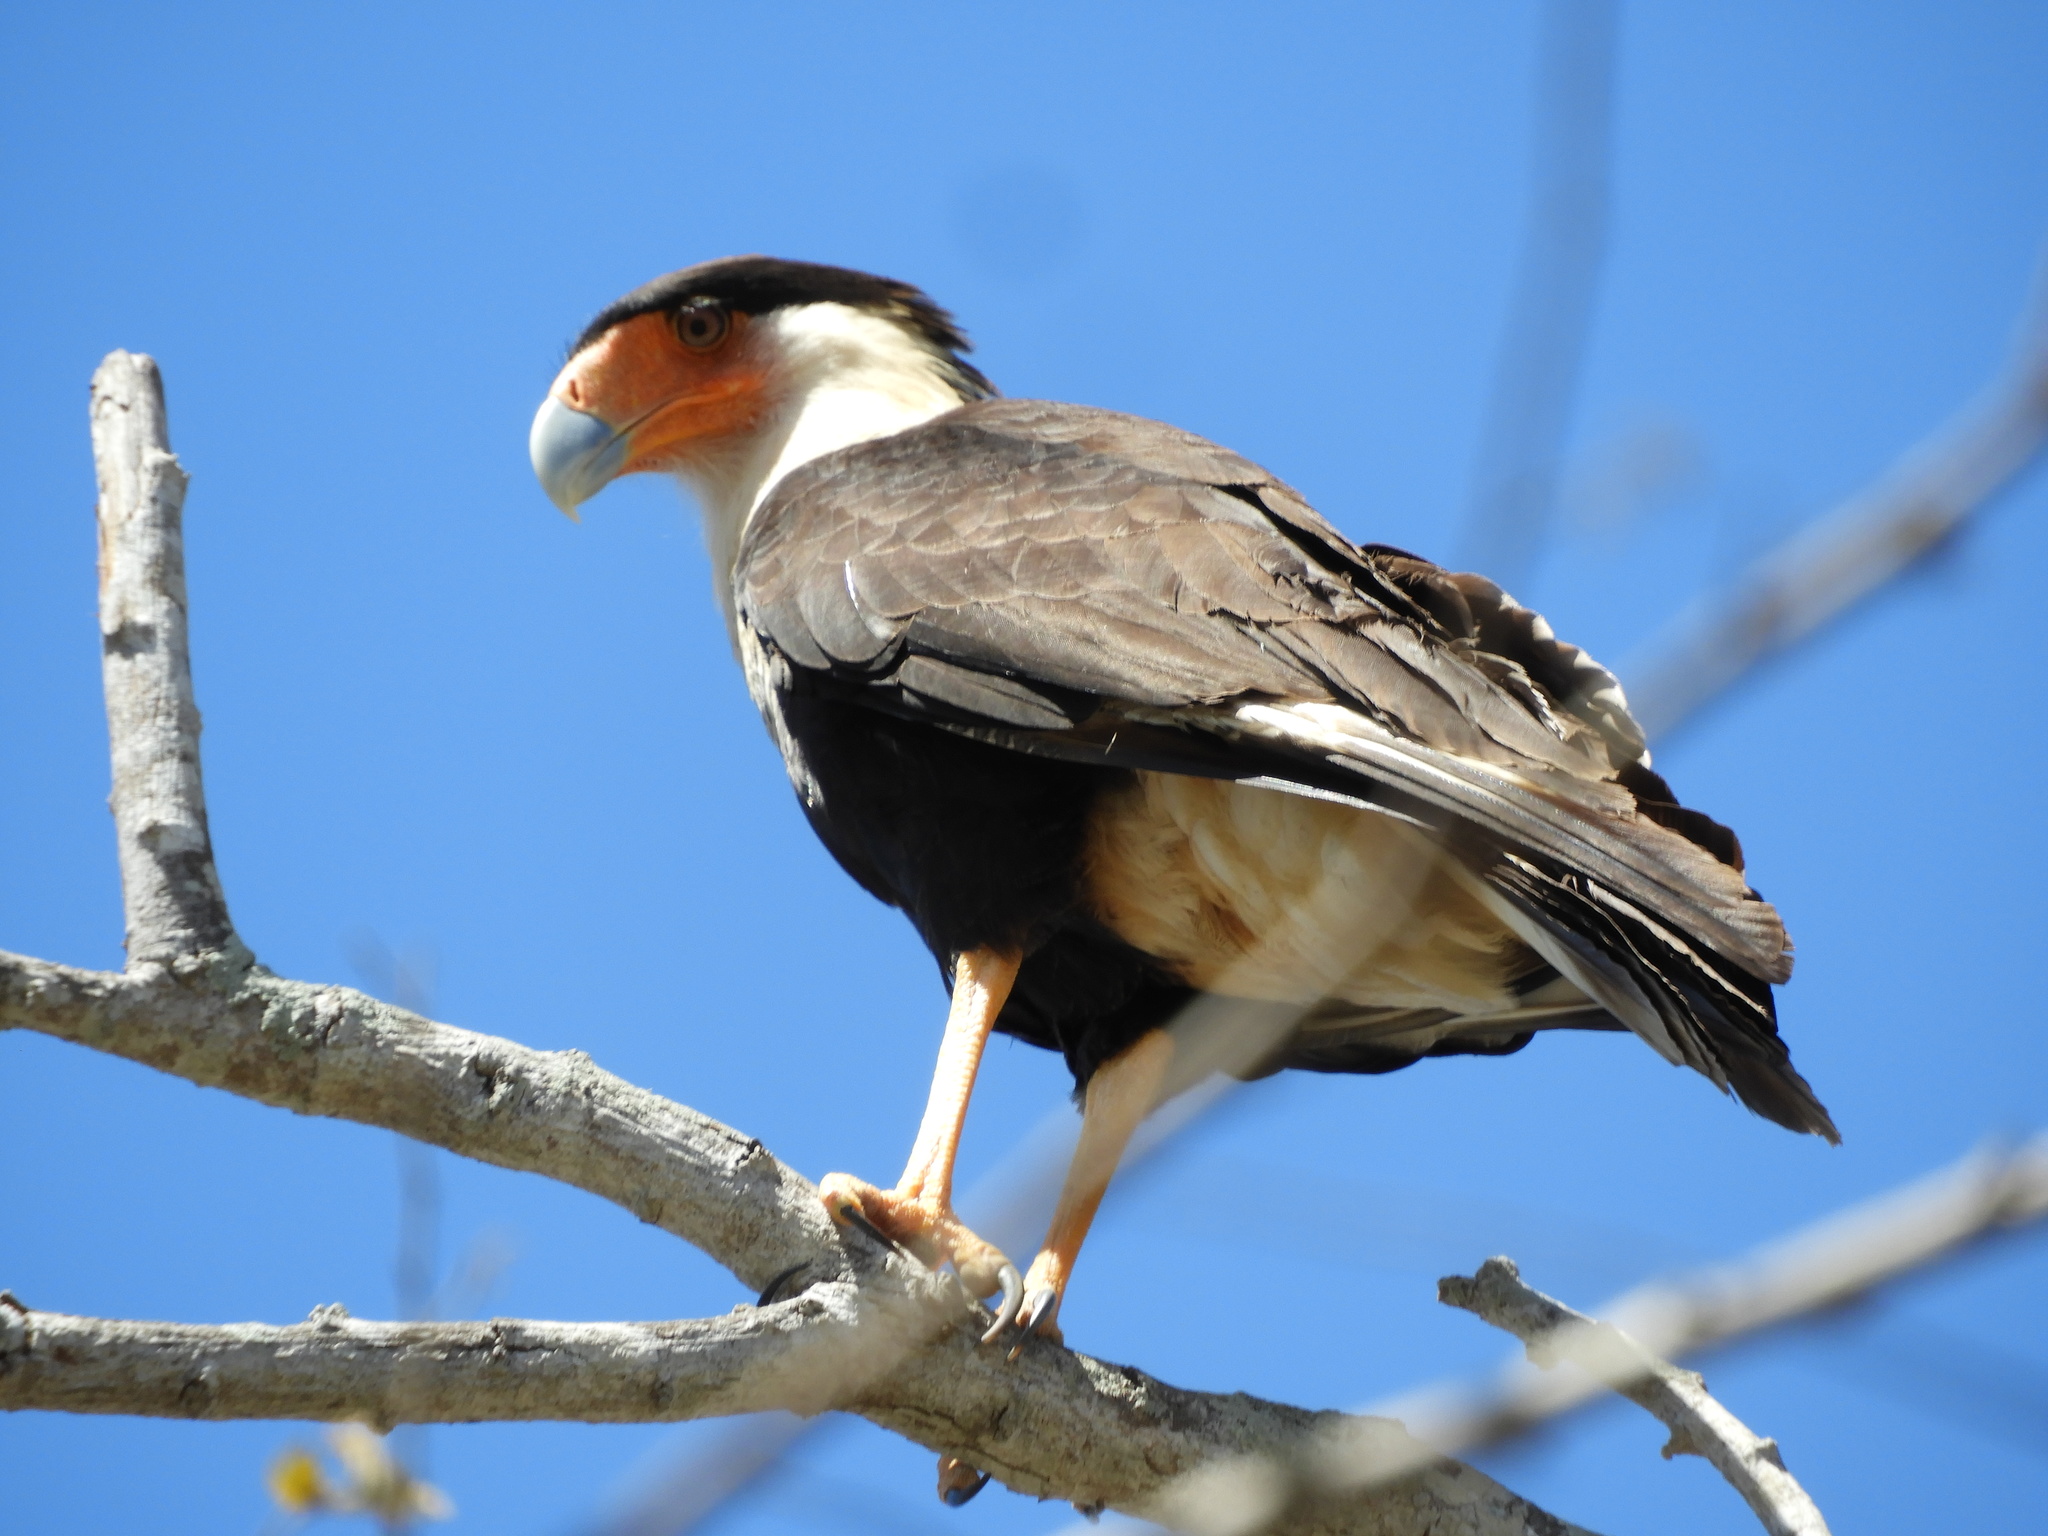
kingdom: Animalia
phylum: Chordata
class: Aves
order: Falconiformes
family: Falconidae
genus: Caracara
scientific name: Caracara plancus
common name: Southern caracara
